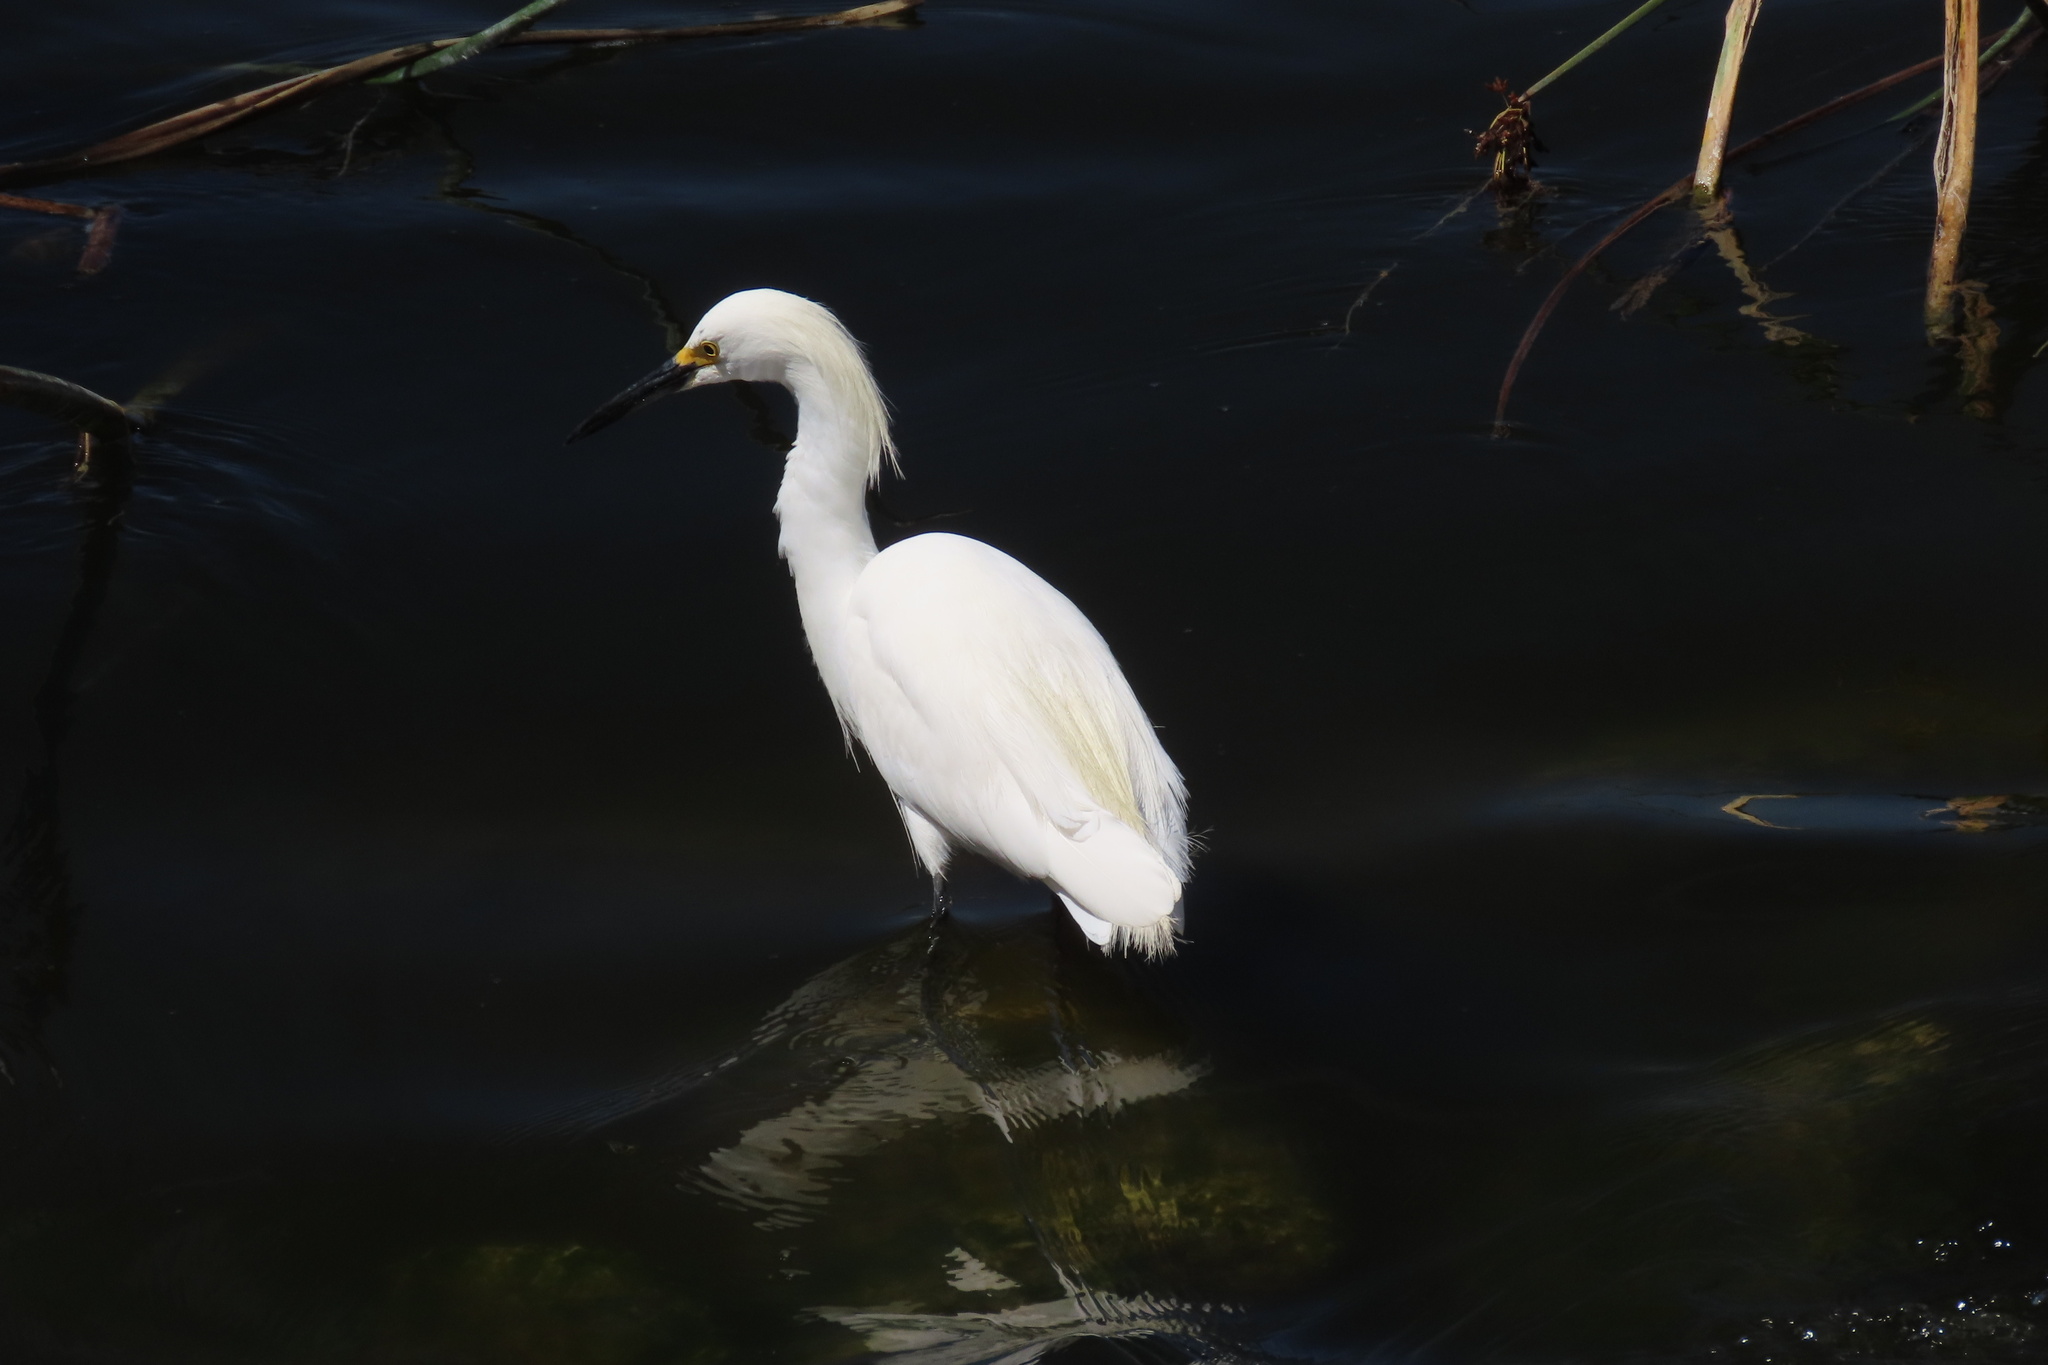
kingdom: Animalia
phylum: Chordata
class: Aves
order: Pelecaniformes
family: Ardeidae
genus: Egretta
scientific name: Egretta thula
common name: Snowy egret
